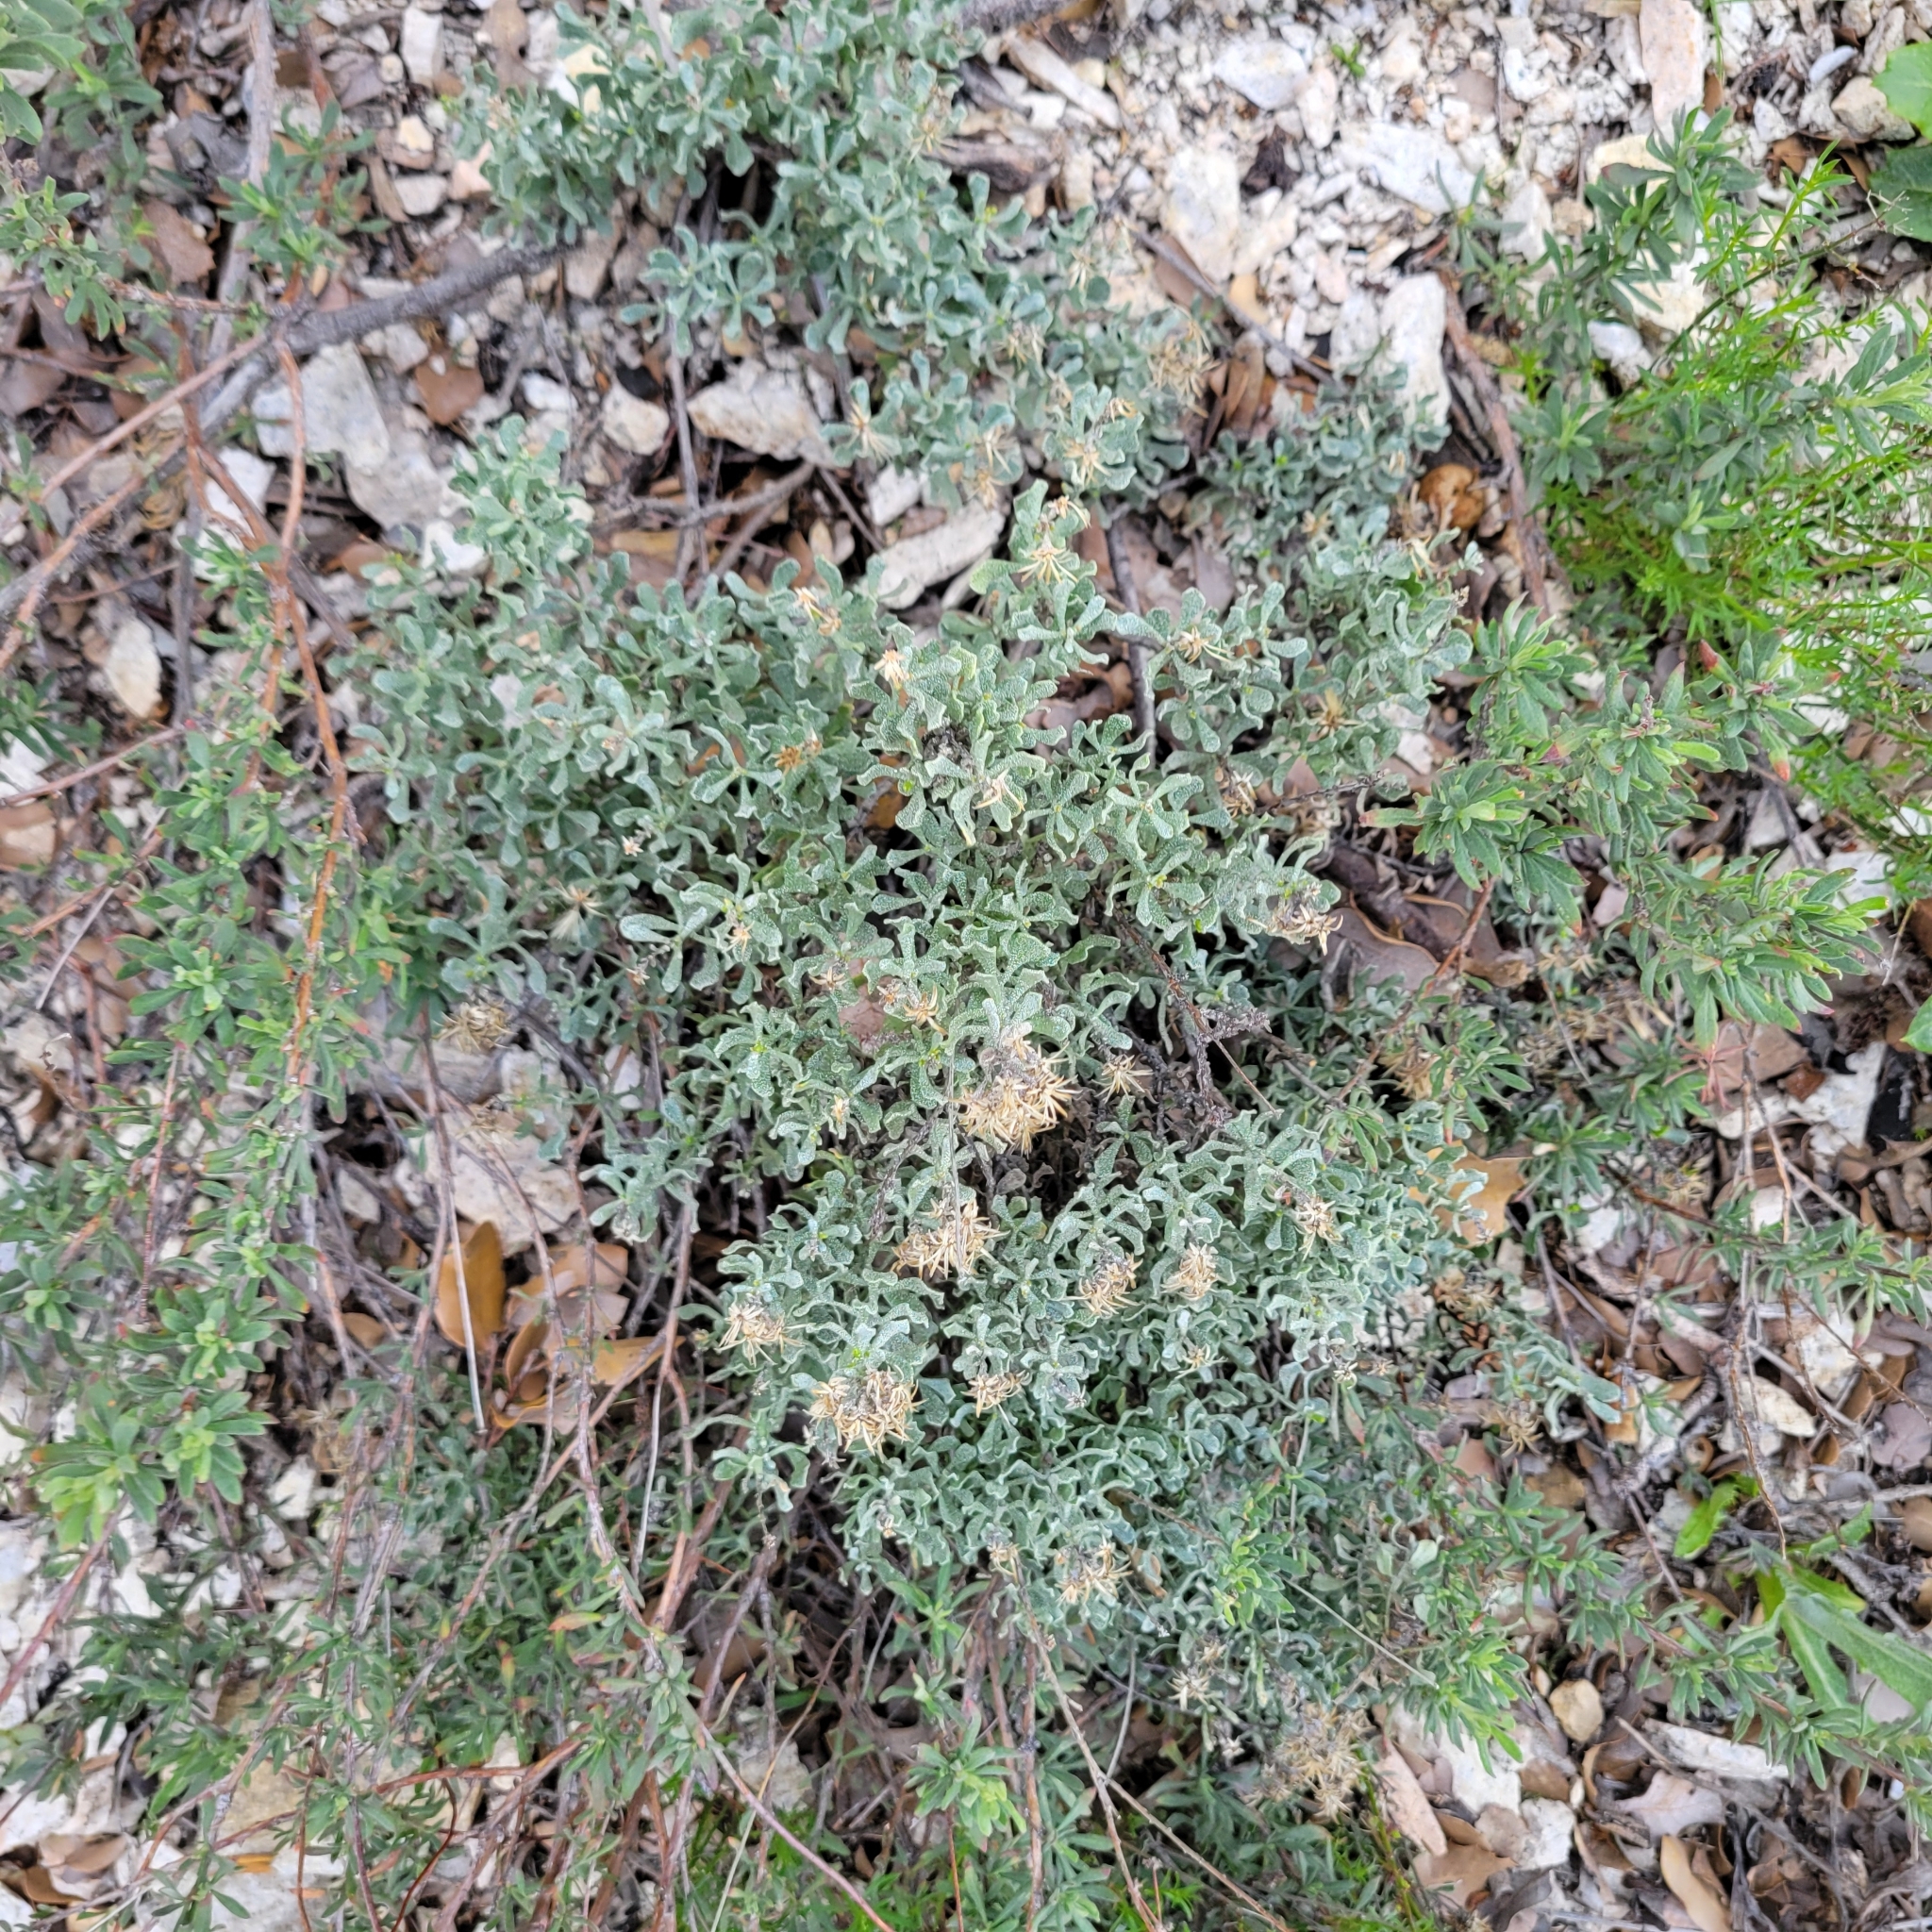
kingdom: Plantae
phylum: Tracheophyta
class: Magnoliopsida
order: Asterales
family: Asteraceae
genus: Ericameria
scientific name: Ericameria cuneata
